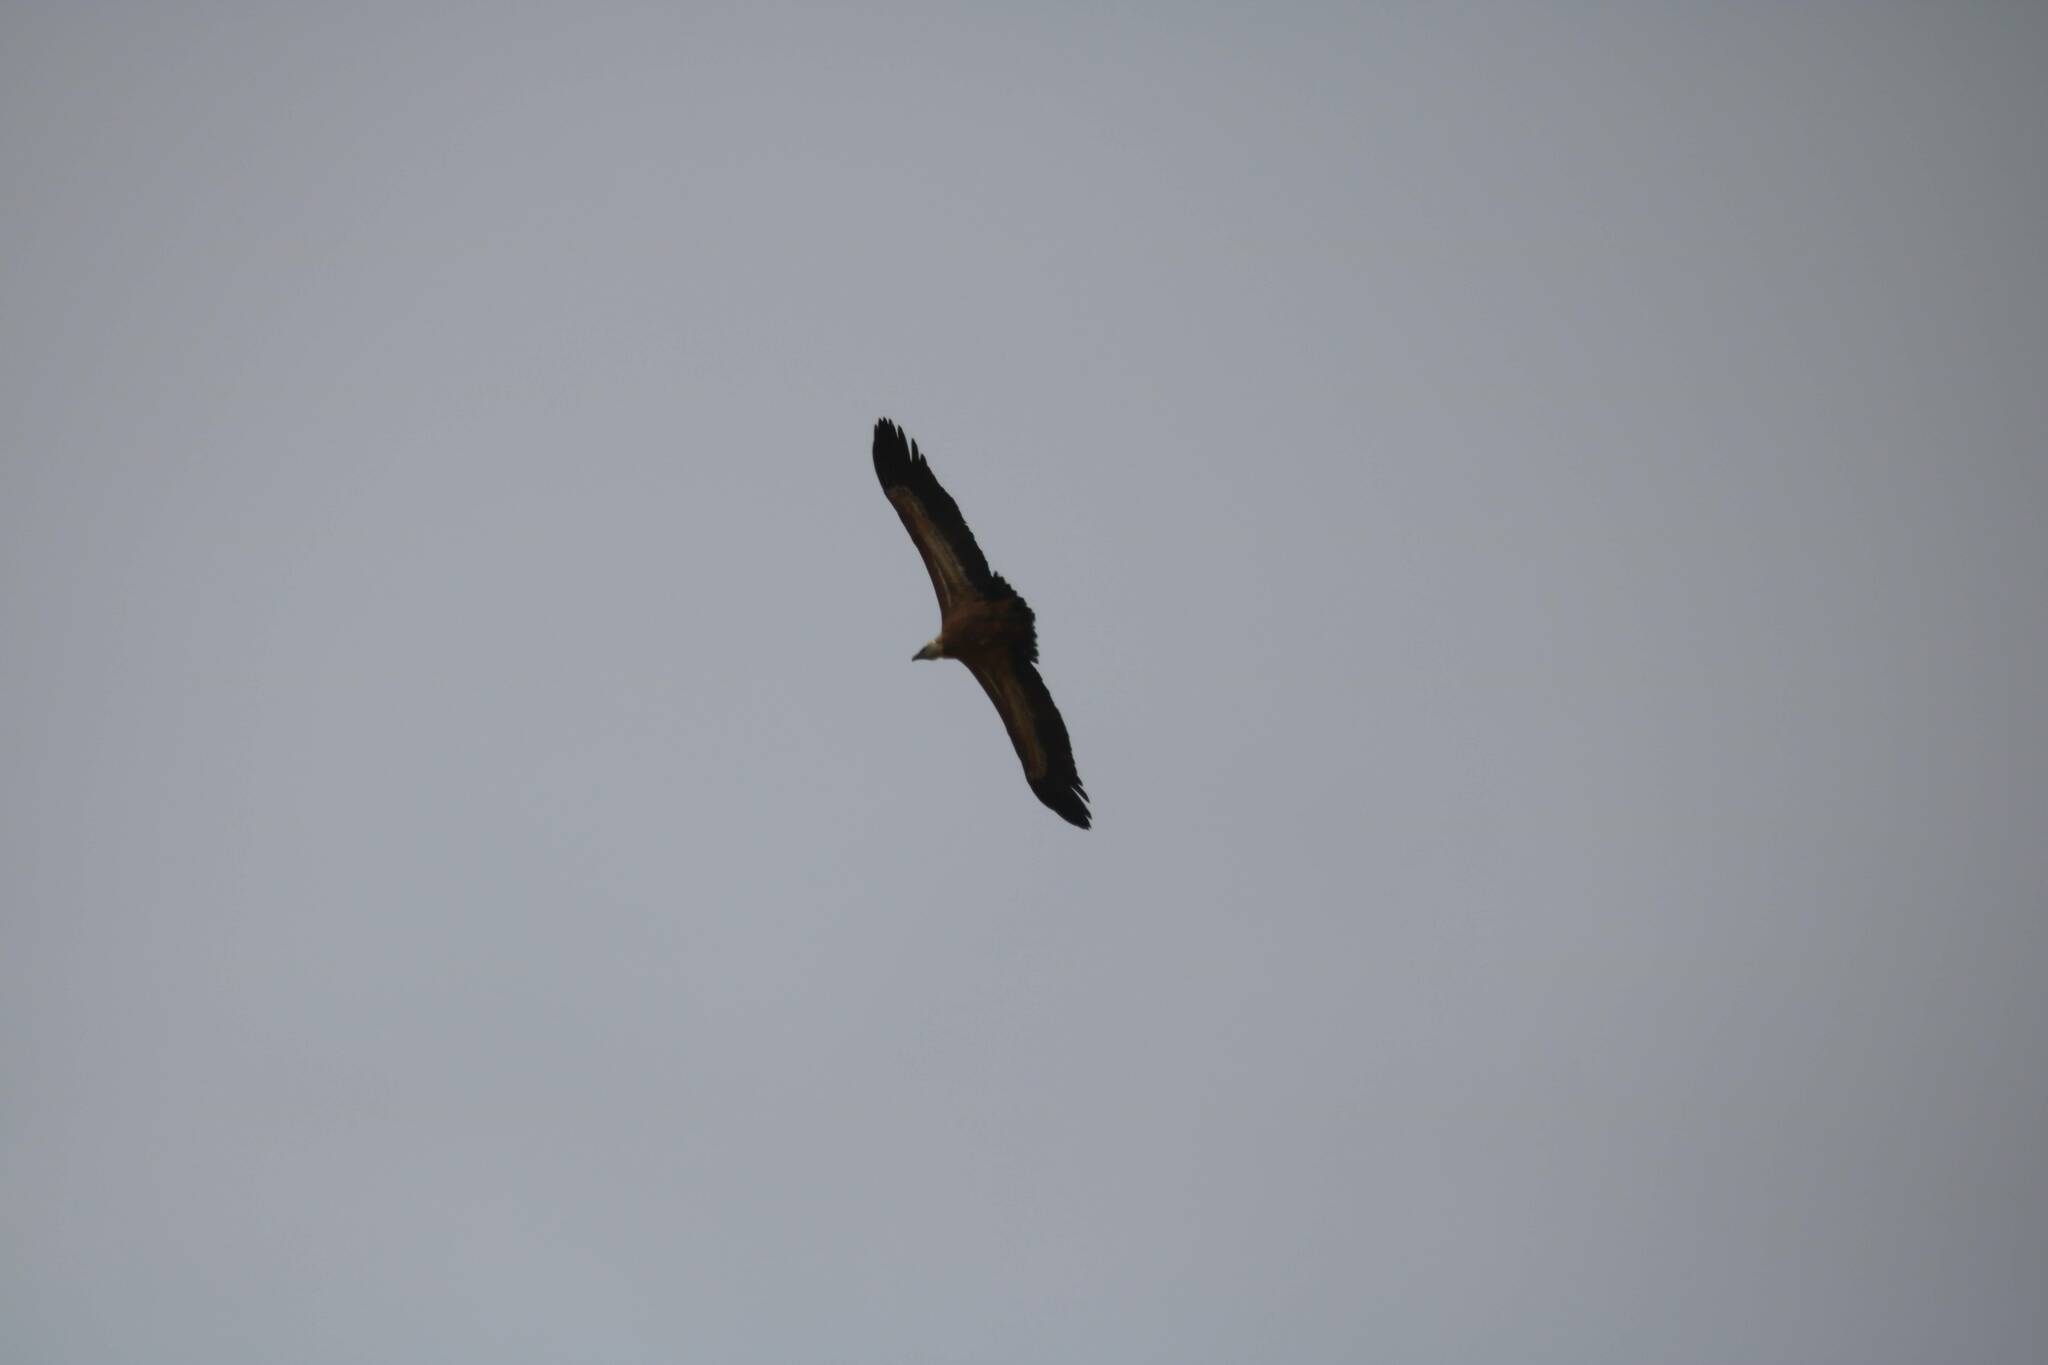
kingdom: Animalia
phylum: Chordata
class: Aves
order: Accipitriformes
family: Accipitridae
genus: Gyps
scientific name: Gyps fulvus
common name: Griffon vulture
